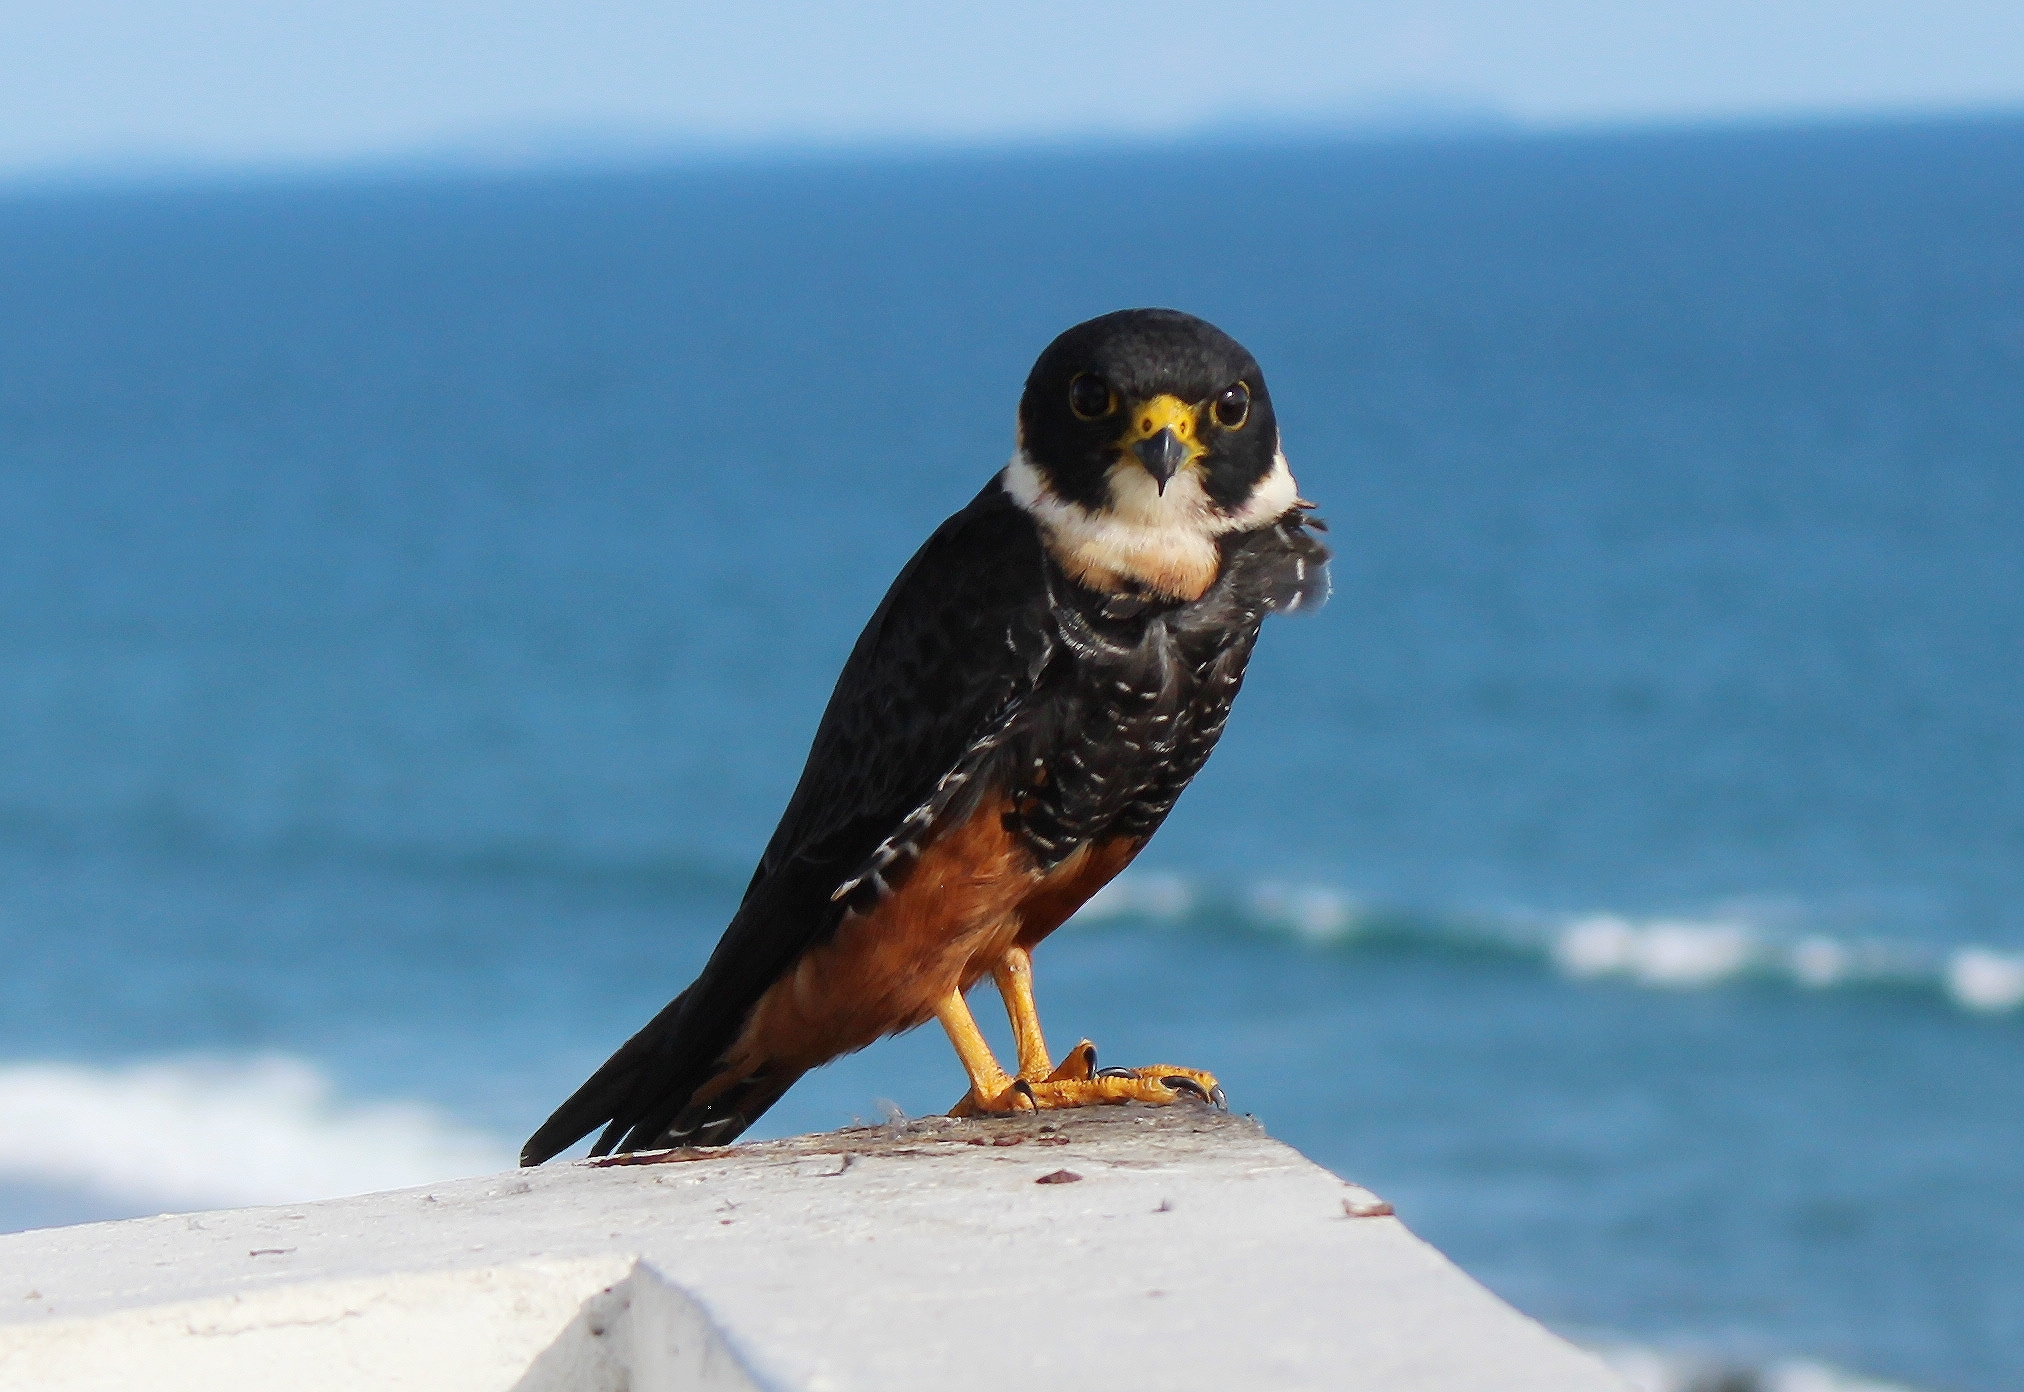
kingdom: Animalia
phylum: Chordata
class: Aves
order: Falconiformes
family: Falconidae
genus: Falco
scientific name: Falco rufigularis
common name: Bat falcon
